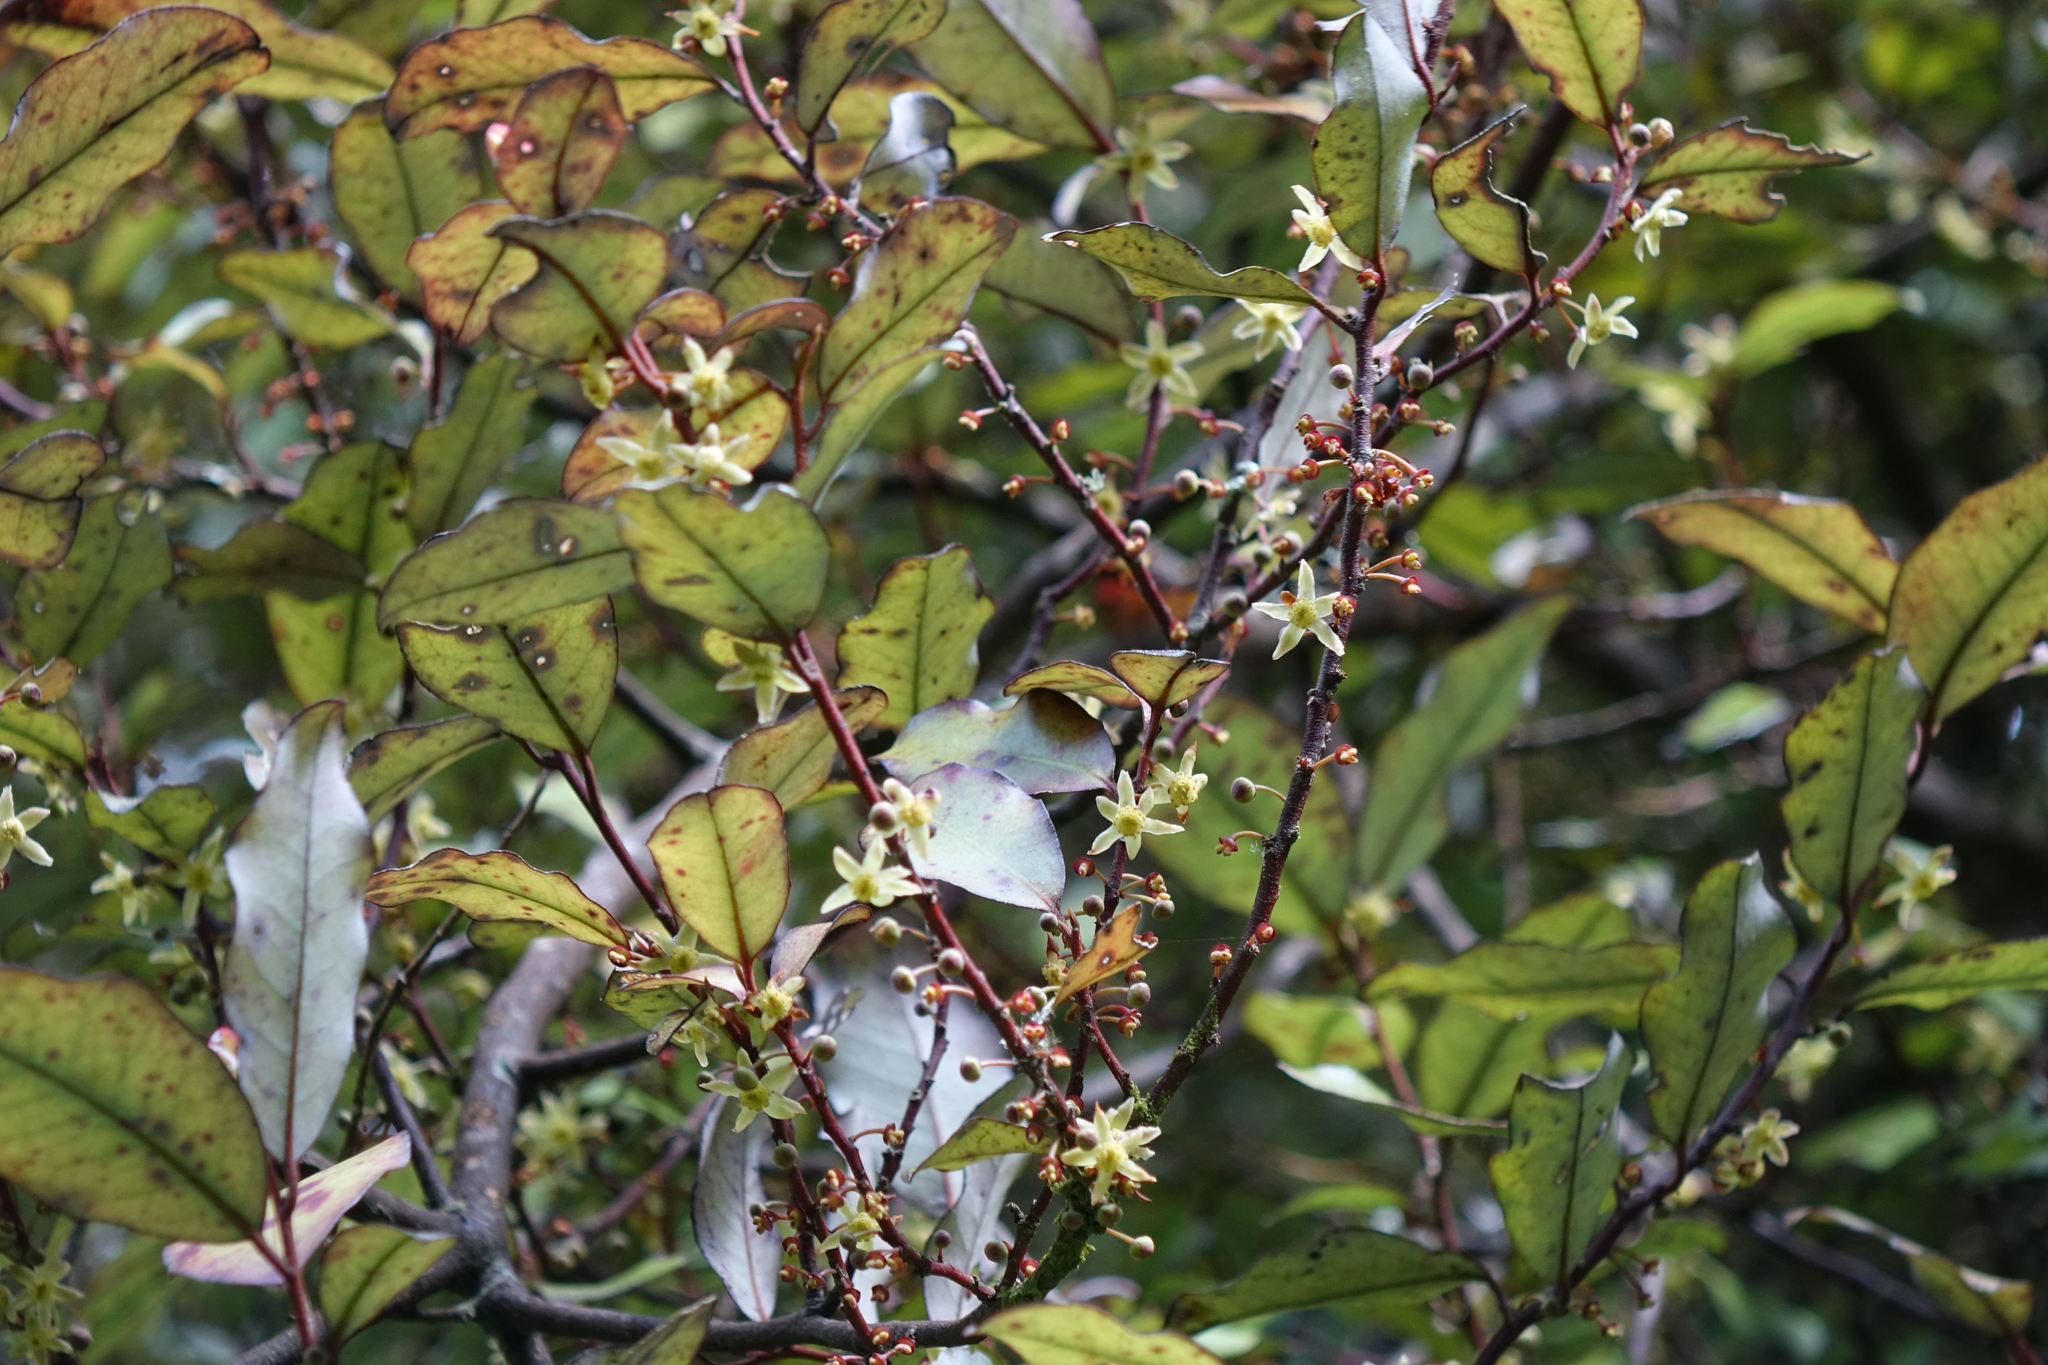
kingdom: Plantae
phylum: Tracheophyta
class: Magnoliopsida
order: Canellales
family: Winteraceae
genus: Pseudowintera
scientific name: Pseudowintera colorata
